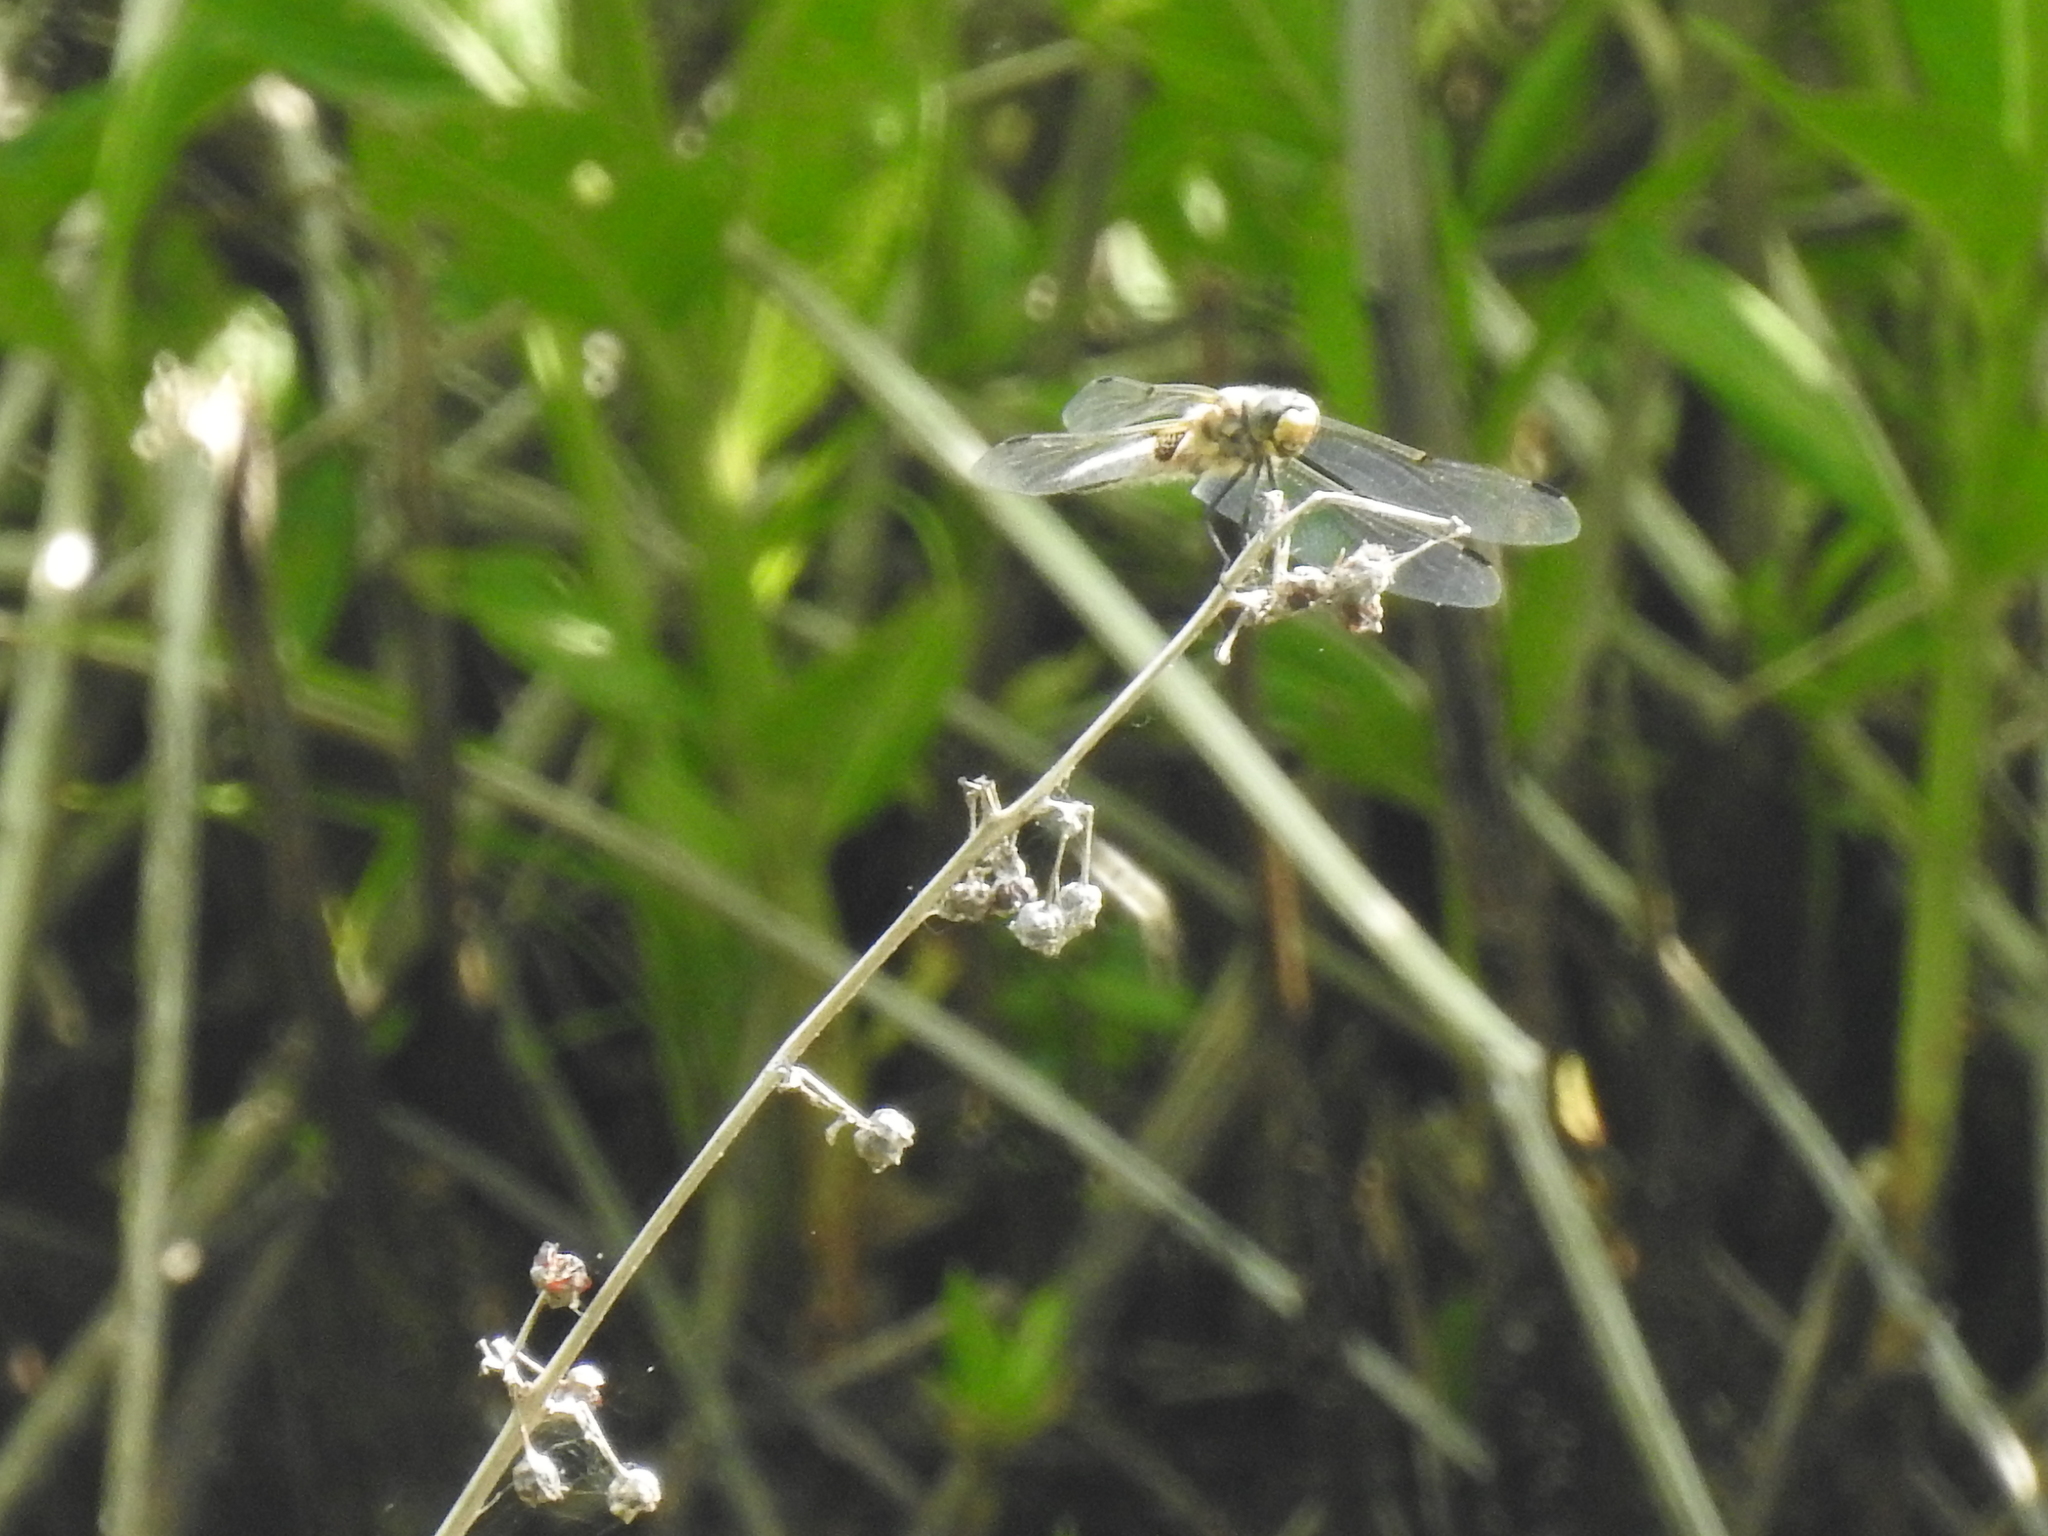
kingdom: Animalia
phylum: Arthropoda
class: Insecta
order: Odonata
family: Libellulidae
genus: Libellula
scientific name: Libellula quadrimaculata
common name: Four-spotted chaser
